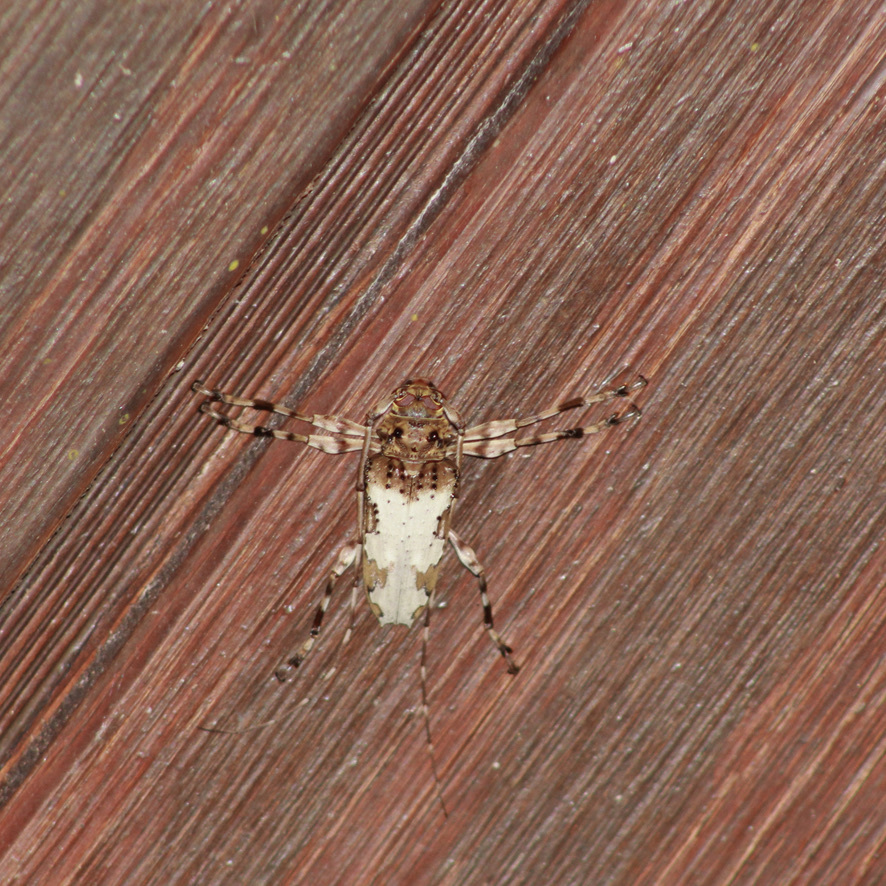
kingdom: Animalia
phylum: Arthropoda
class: Insecta
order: Coleoptera
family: Cerambycidae
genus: Oreodera
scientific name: Oreodera jacquieri
